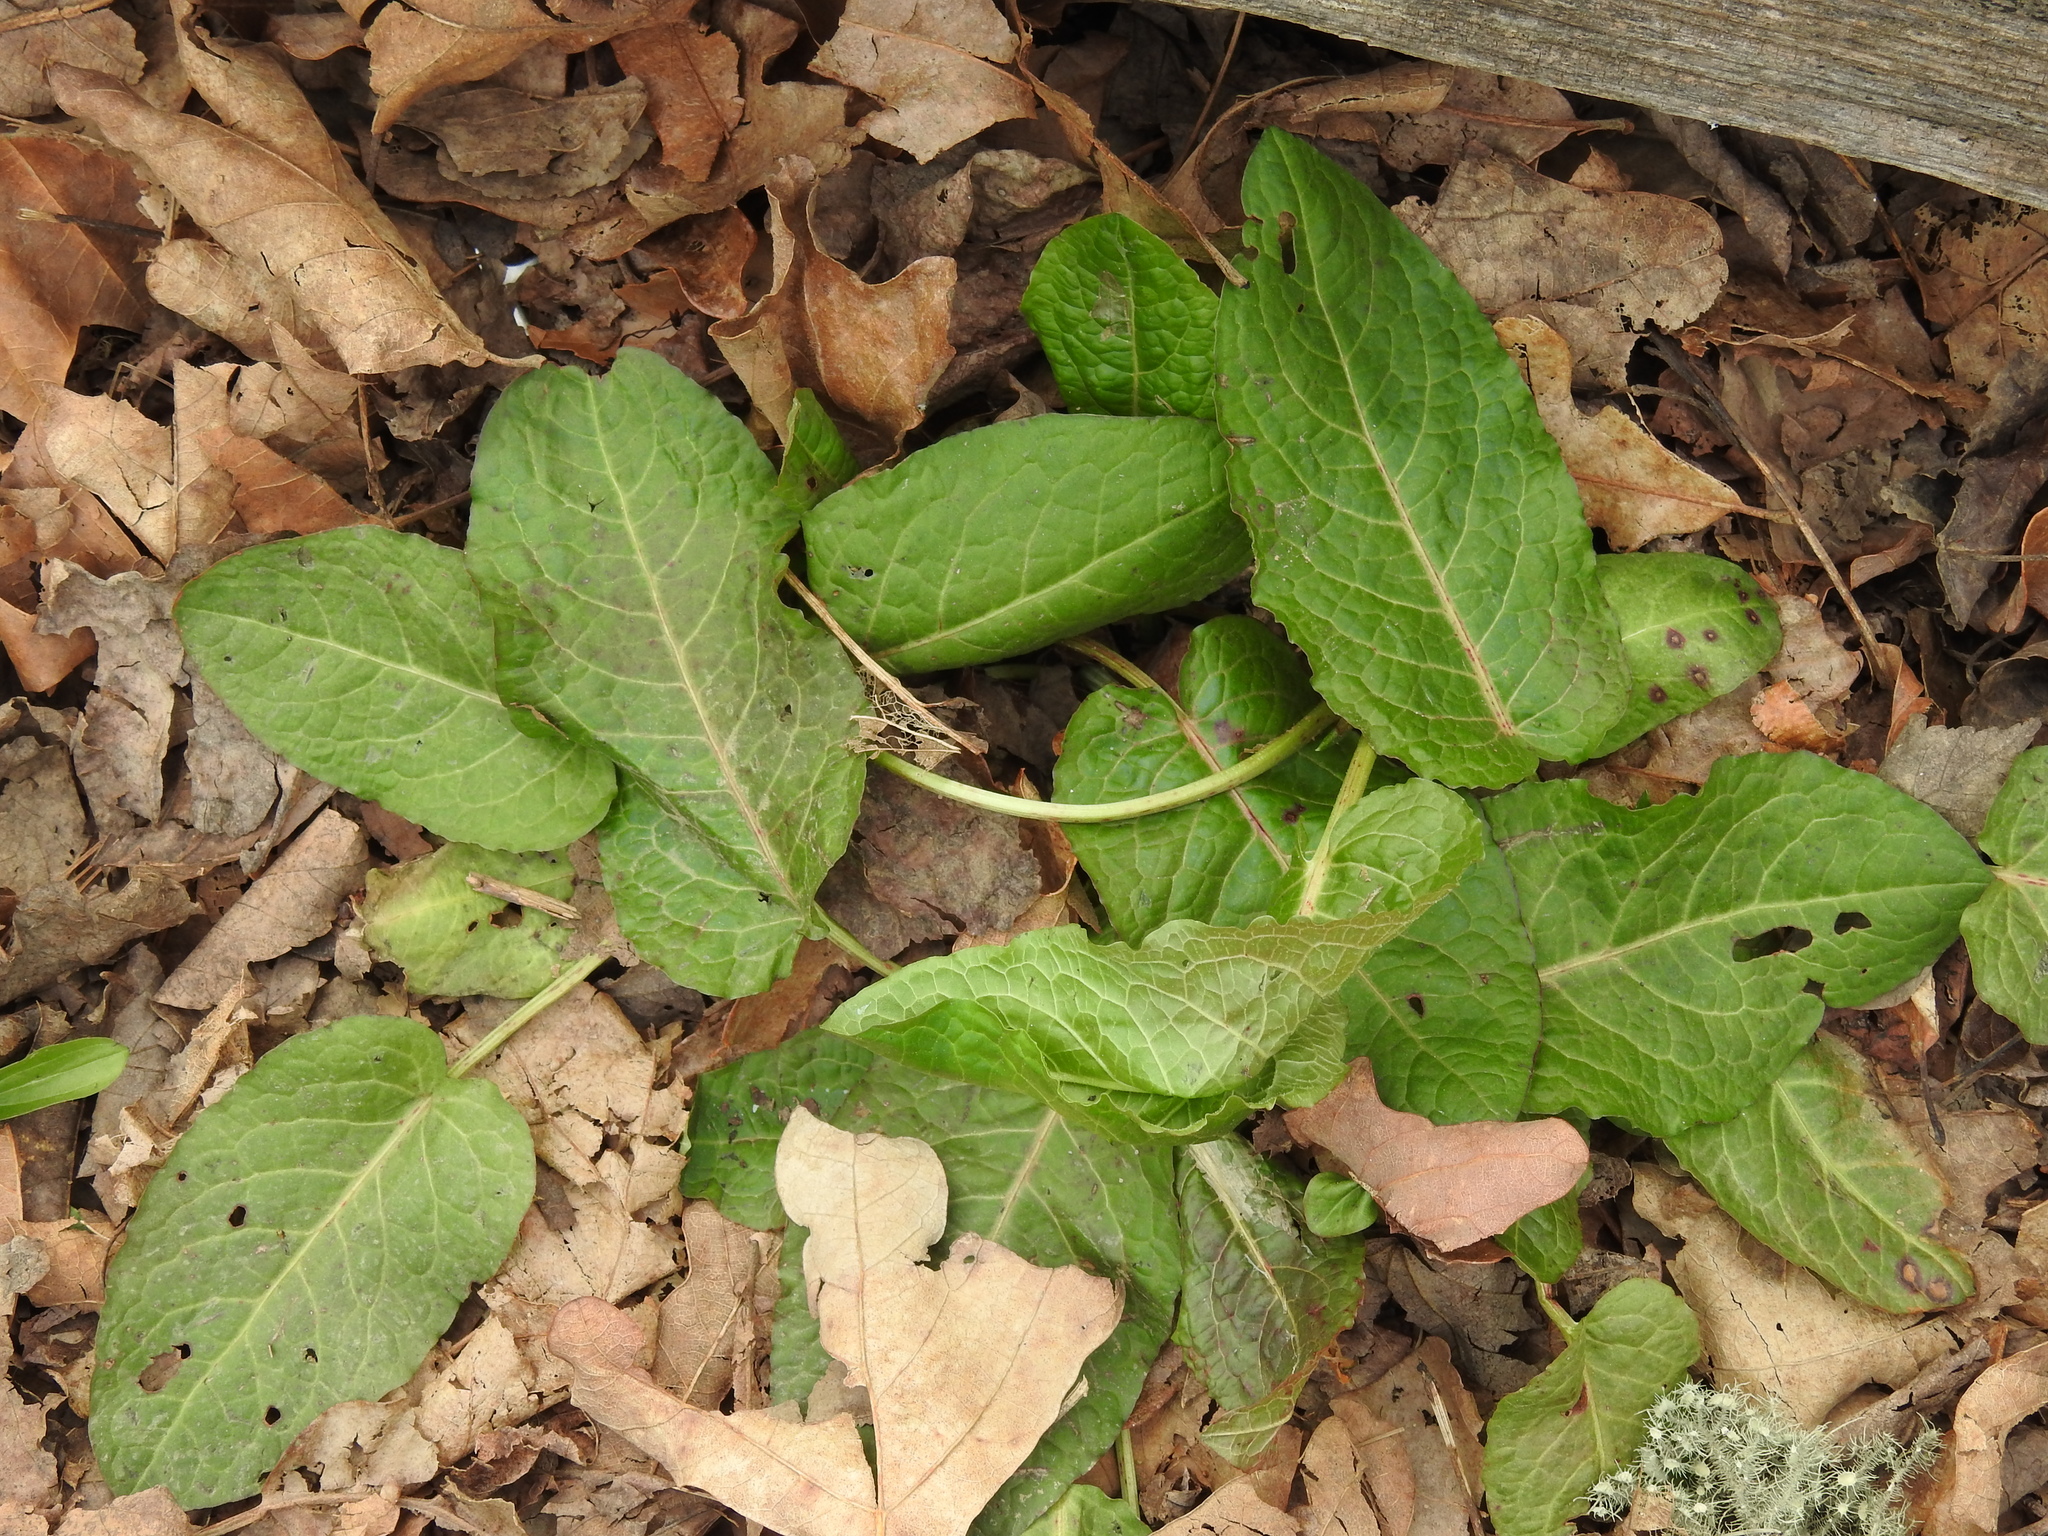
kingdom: Plantae
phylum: Tracheophyta
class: Magnoliopsida
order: Caryophyllales
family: Polygonaceae
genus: Rumex
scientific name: Rumex obtusifolius
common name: Bitter dock
